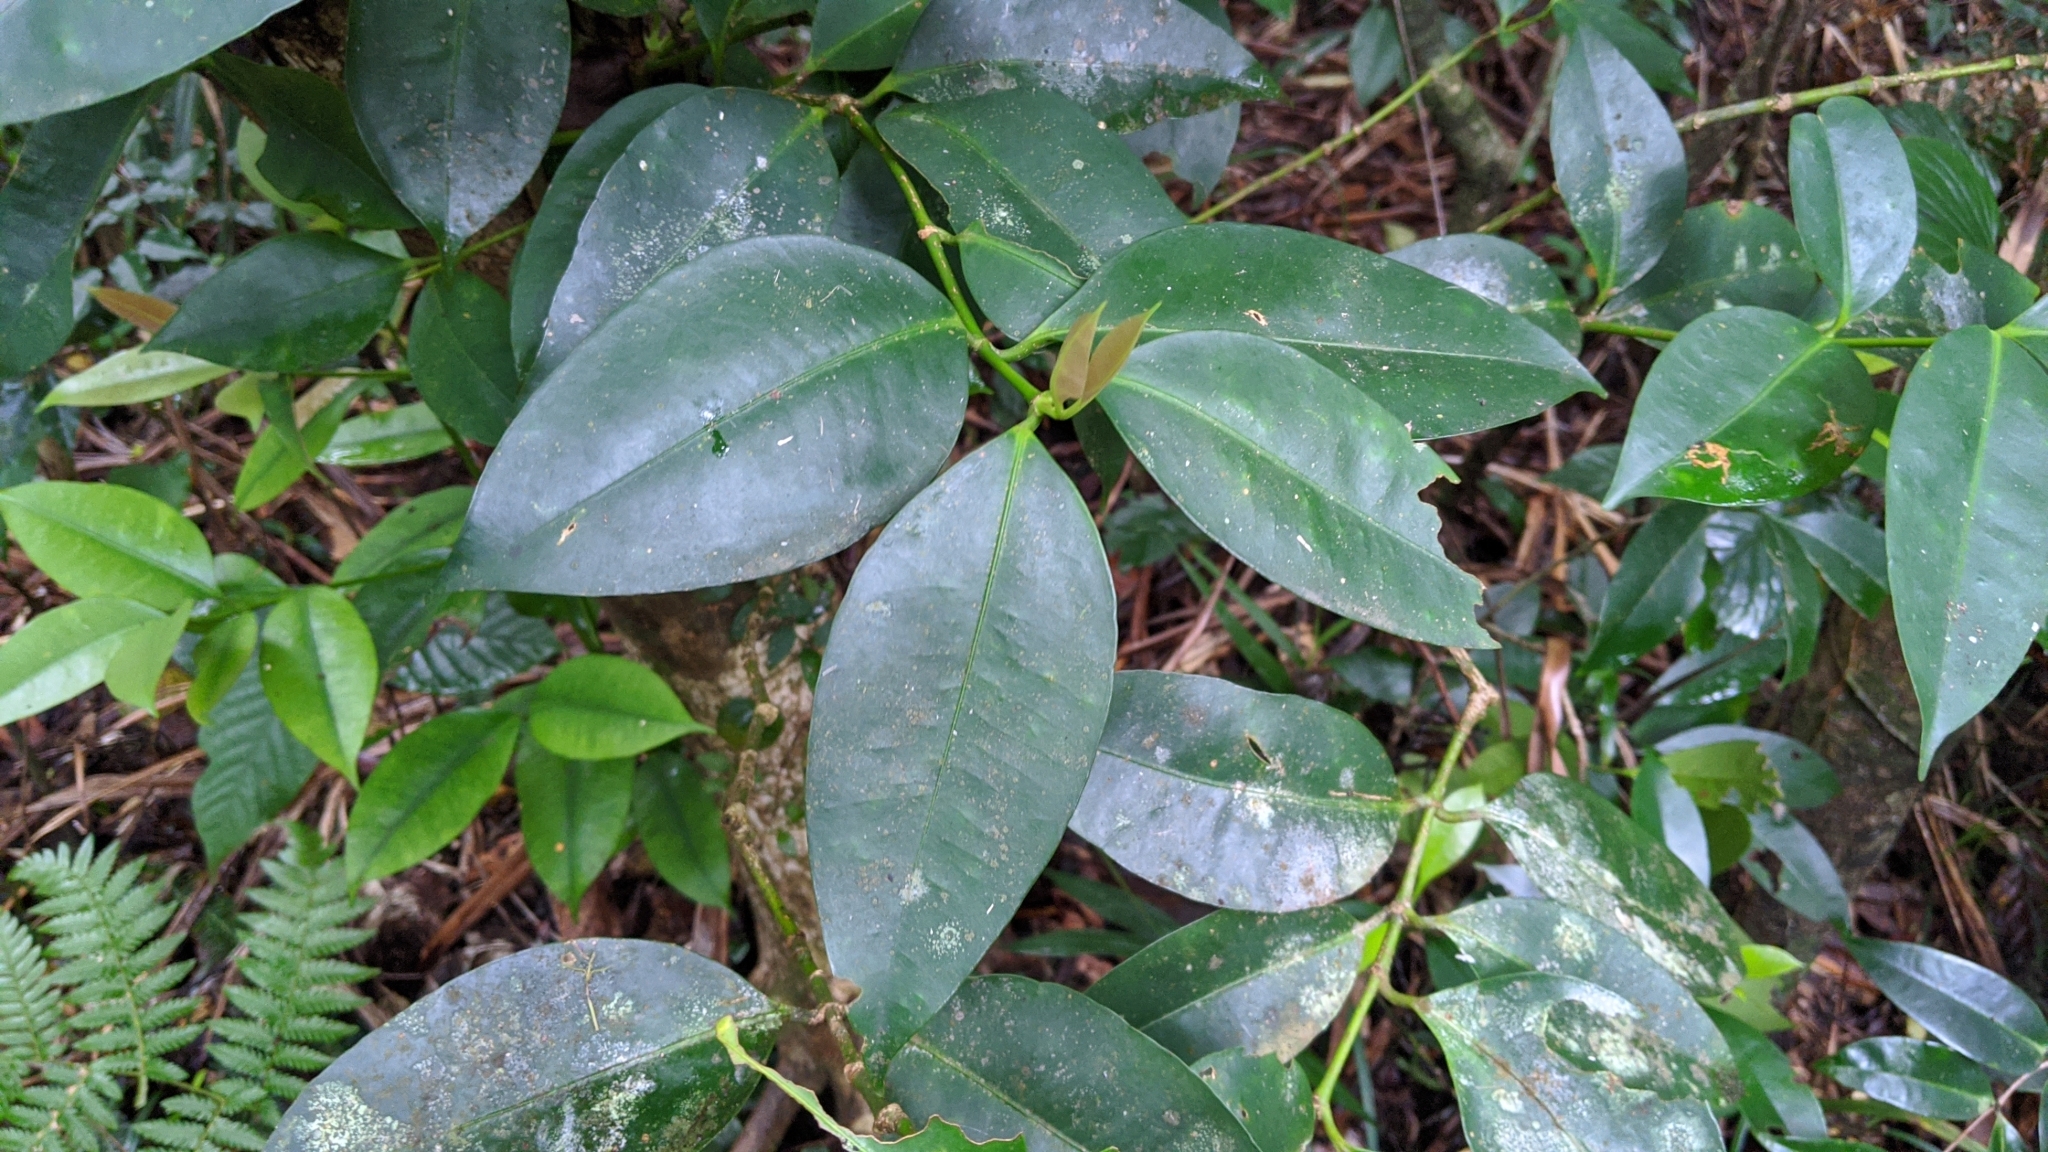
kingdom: Plantae
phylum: Tracheophyta
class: Magnoliopsida
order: Malpighiales
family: Clusiaceae
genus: Garcinia
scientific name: Garcinia linii
